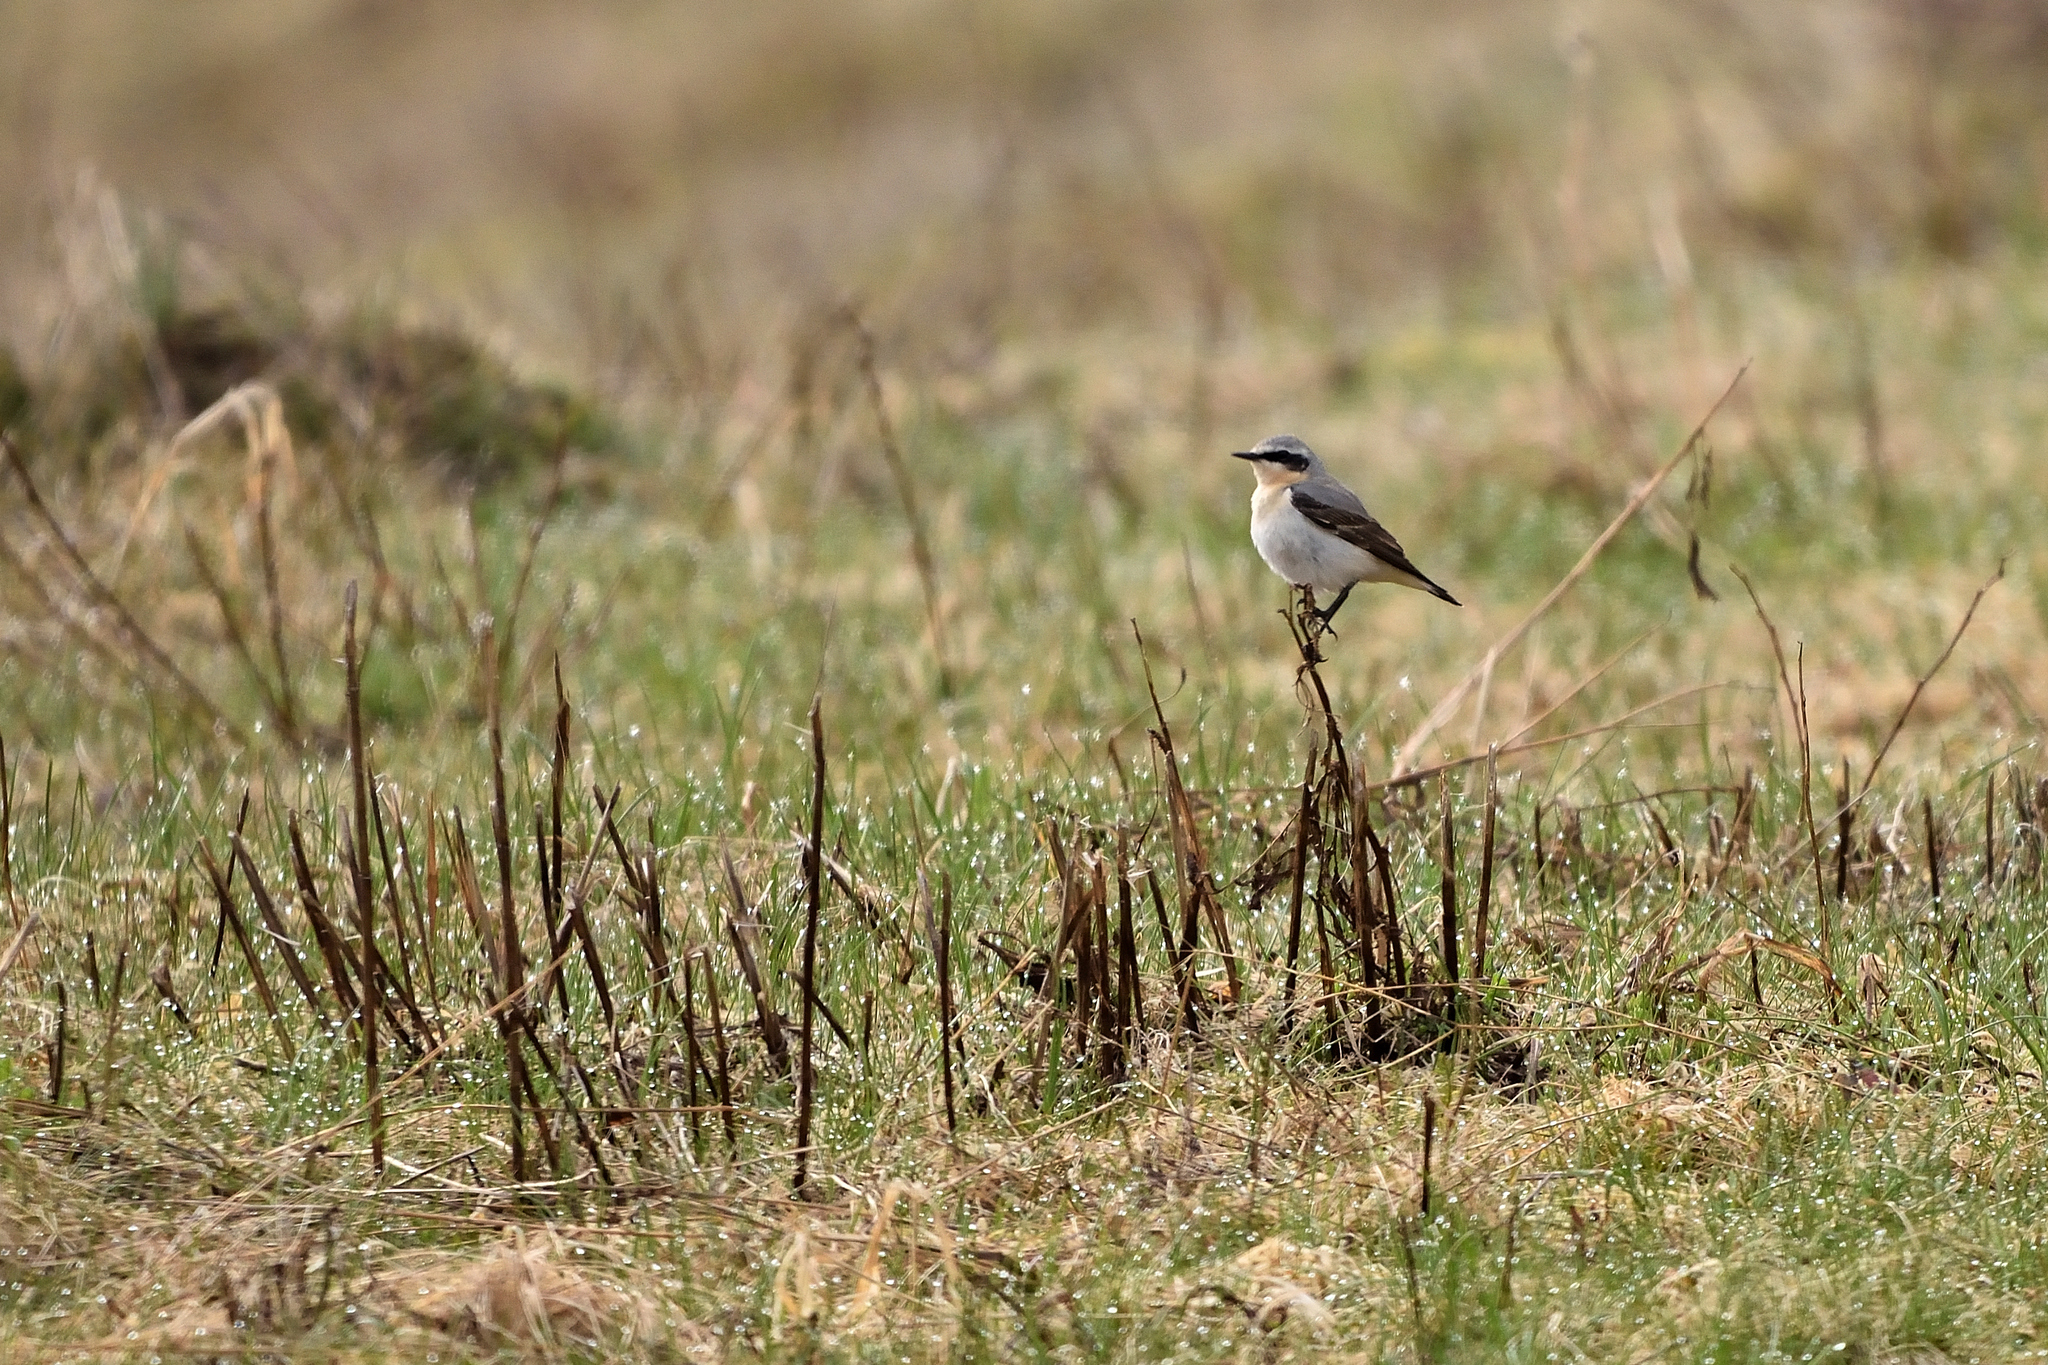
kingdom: Animalia
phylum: Chordata
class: Aves
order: Passeriformes
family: Muscicapidae
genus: Oenanthe
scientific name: Oenanthe oenanthe
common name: Northern wheatear
